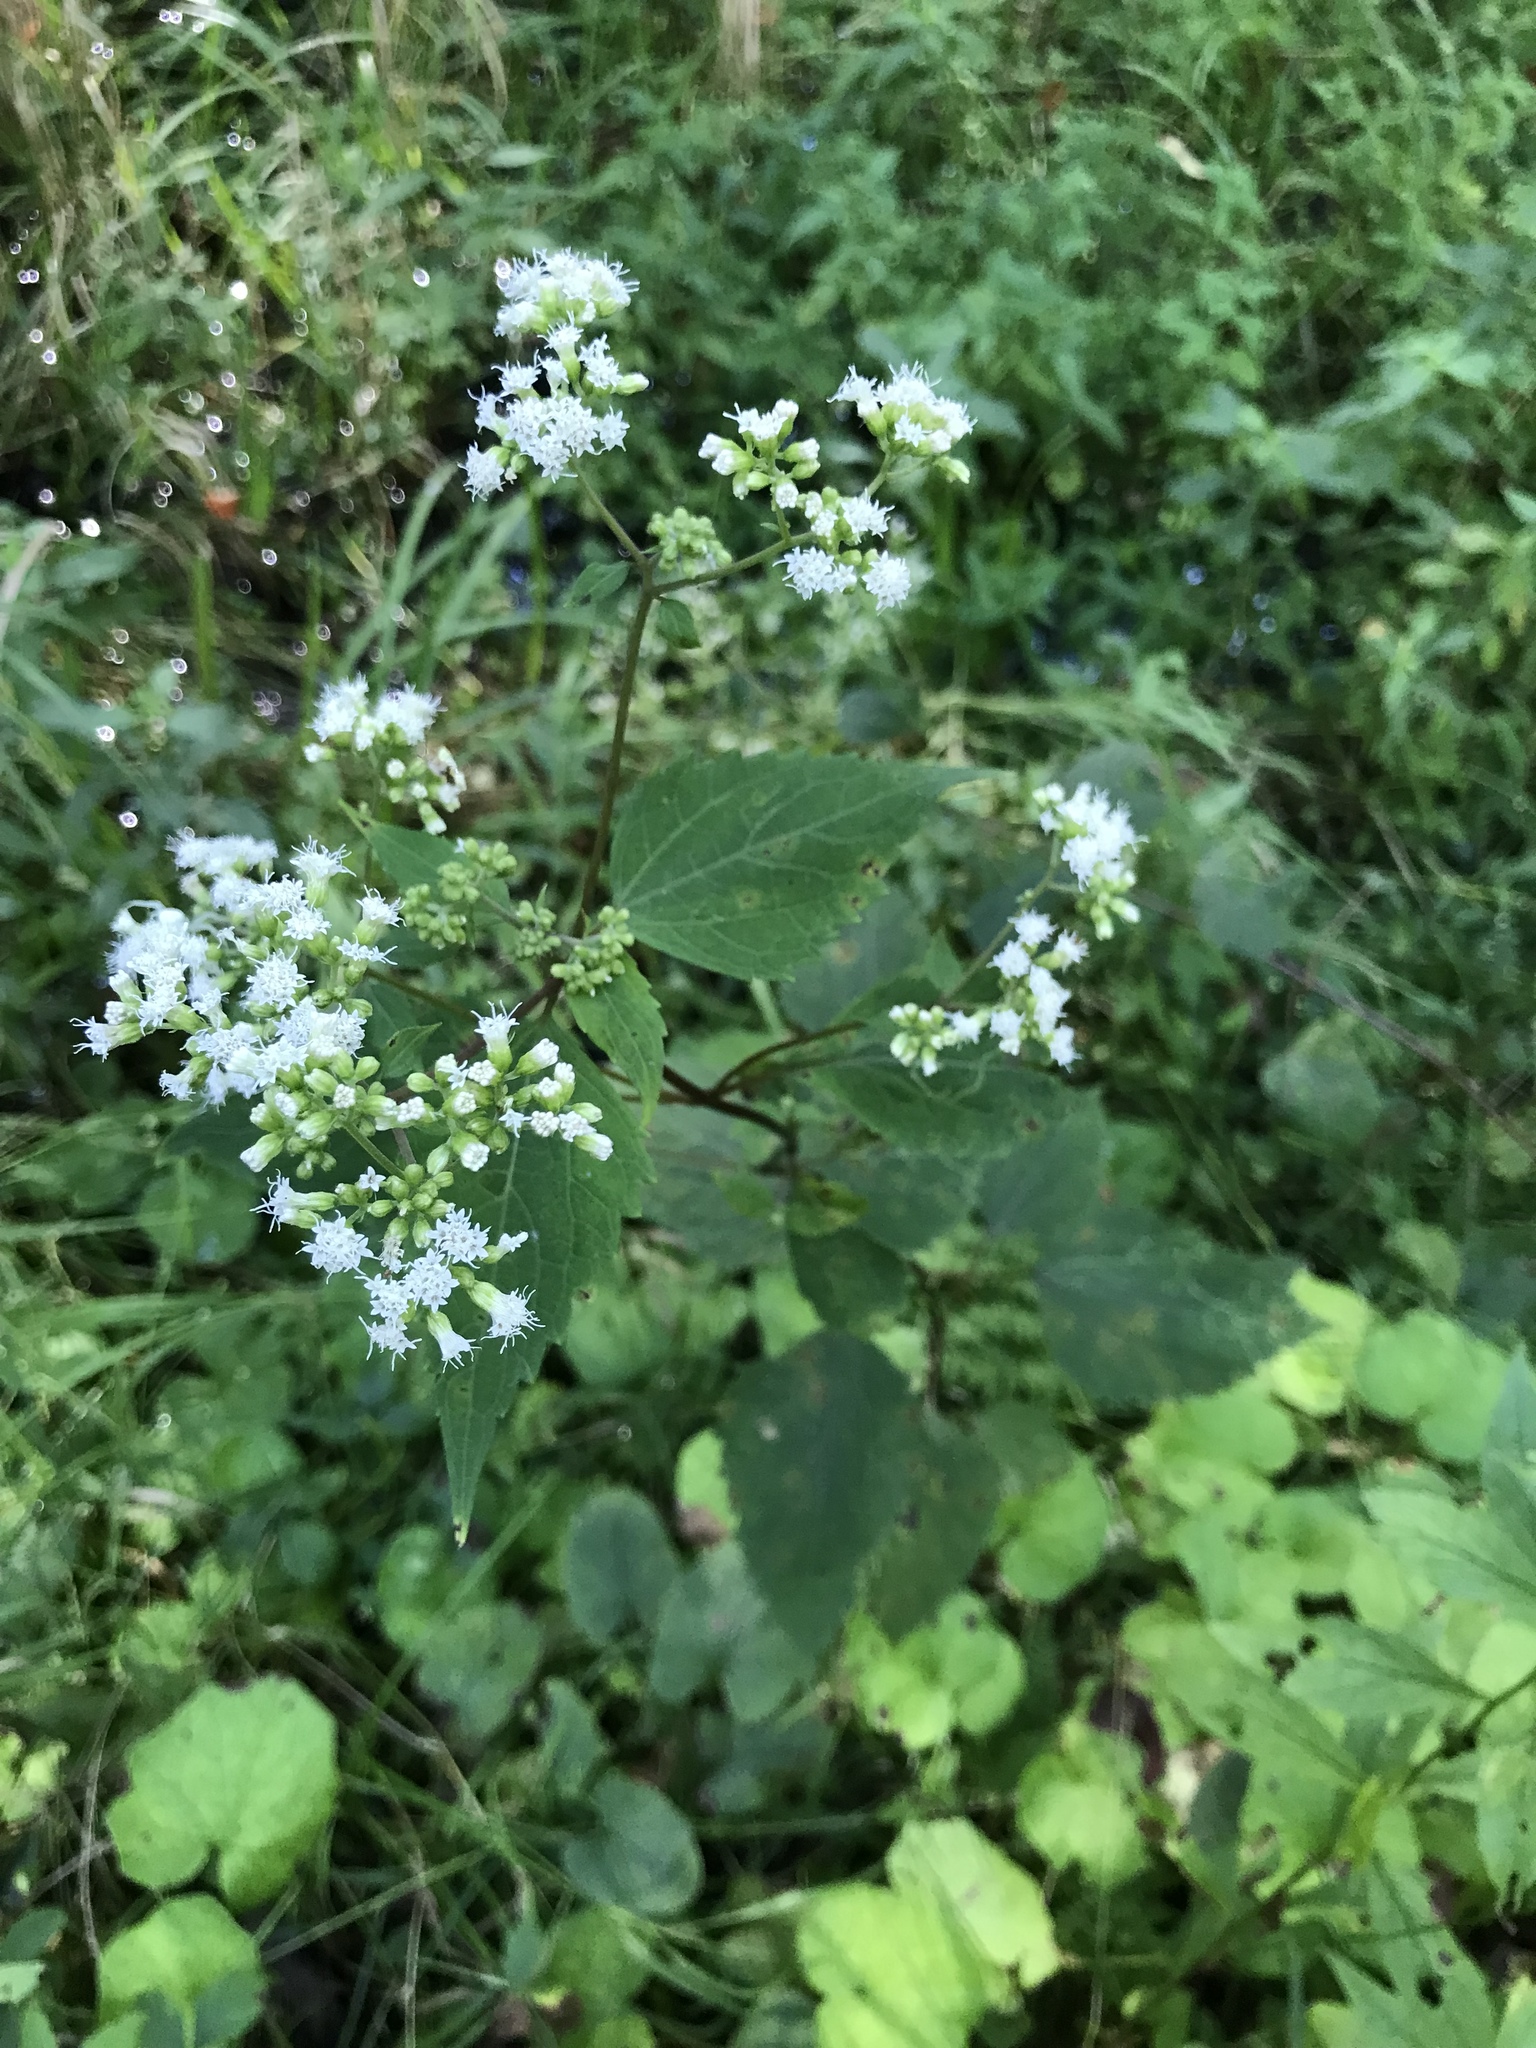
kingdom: Plantae
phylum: Tracheophyta
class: Magnoliopsida
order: Asterales
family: Asteraceae
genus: Ageratina
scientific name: Ageratina altissima
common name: White snakeroot
